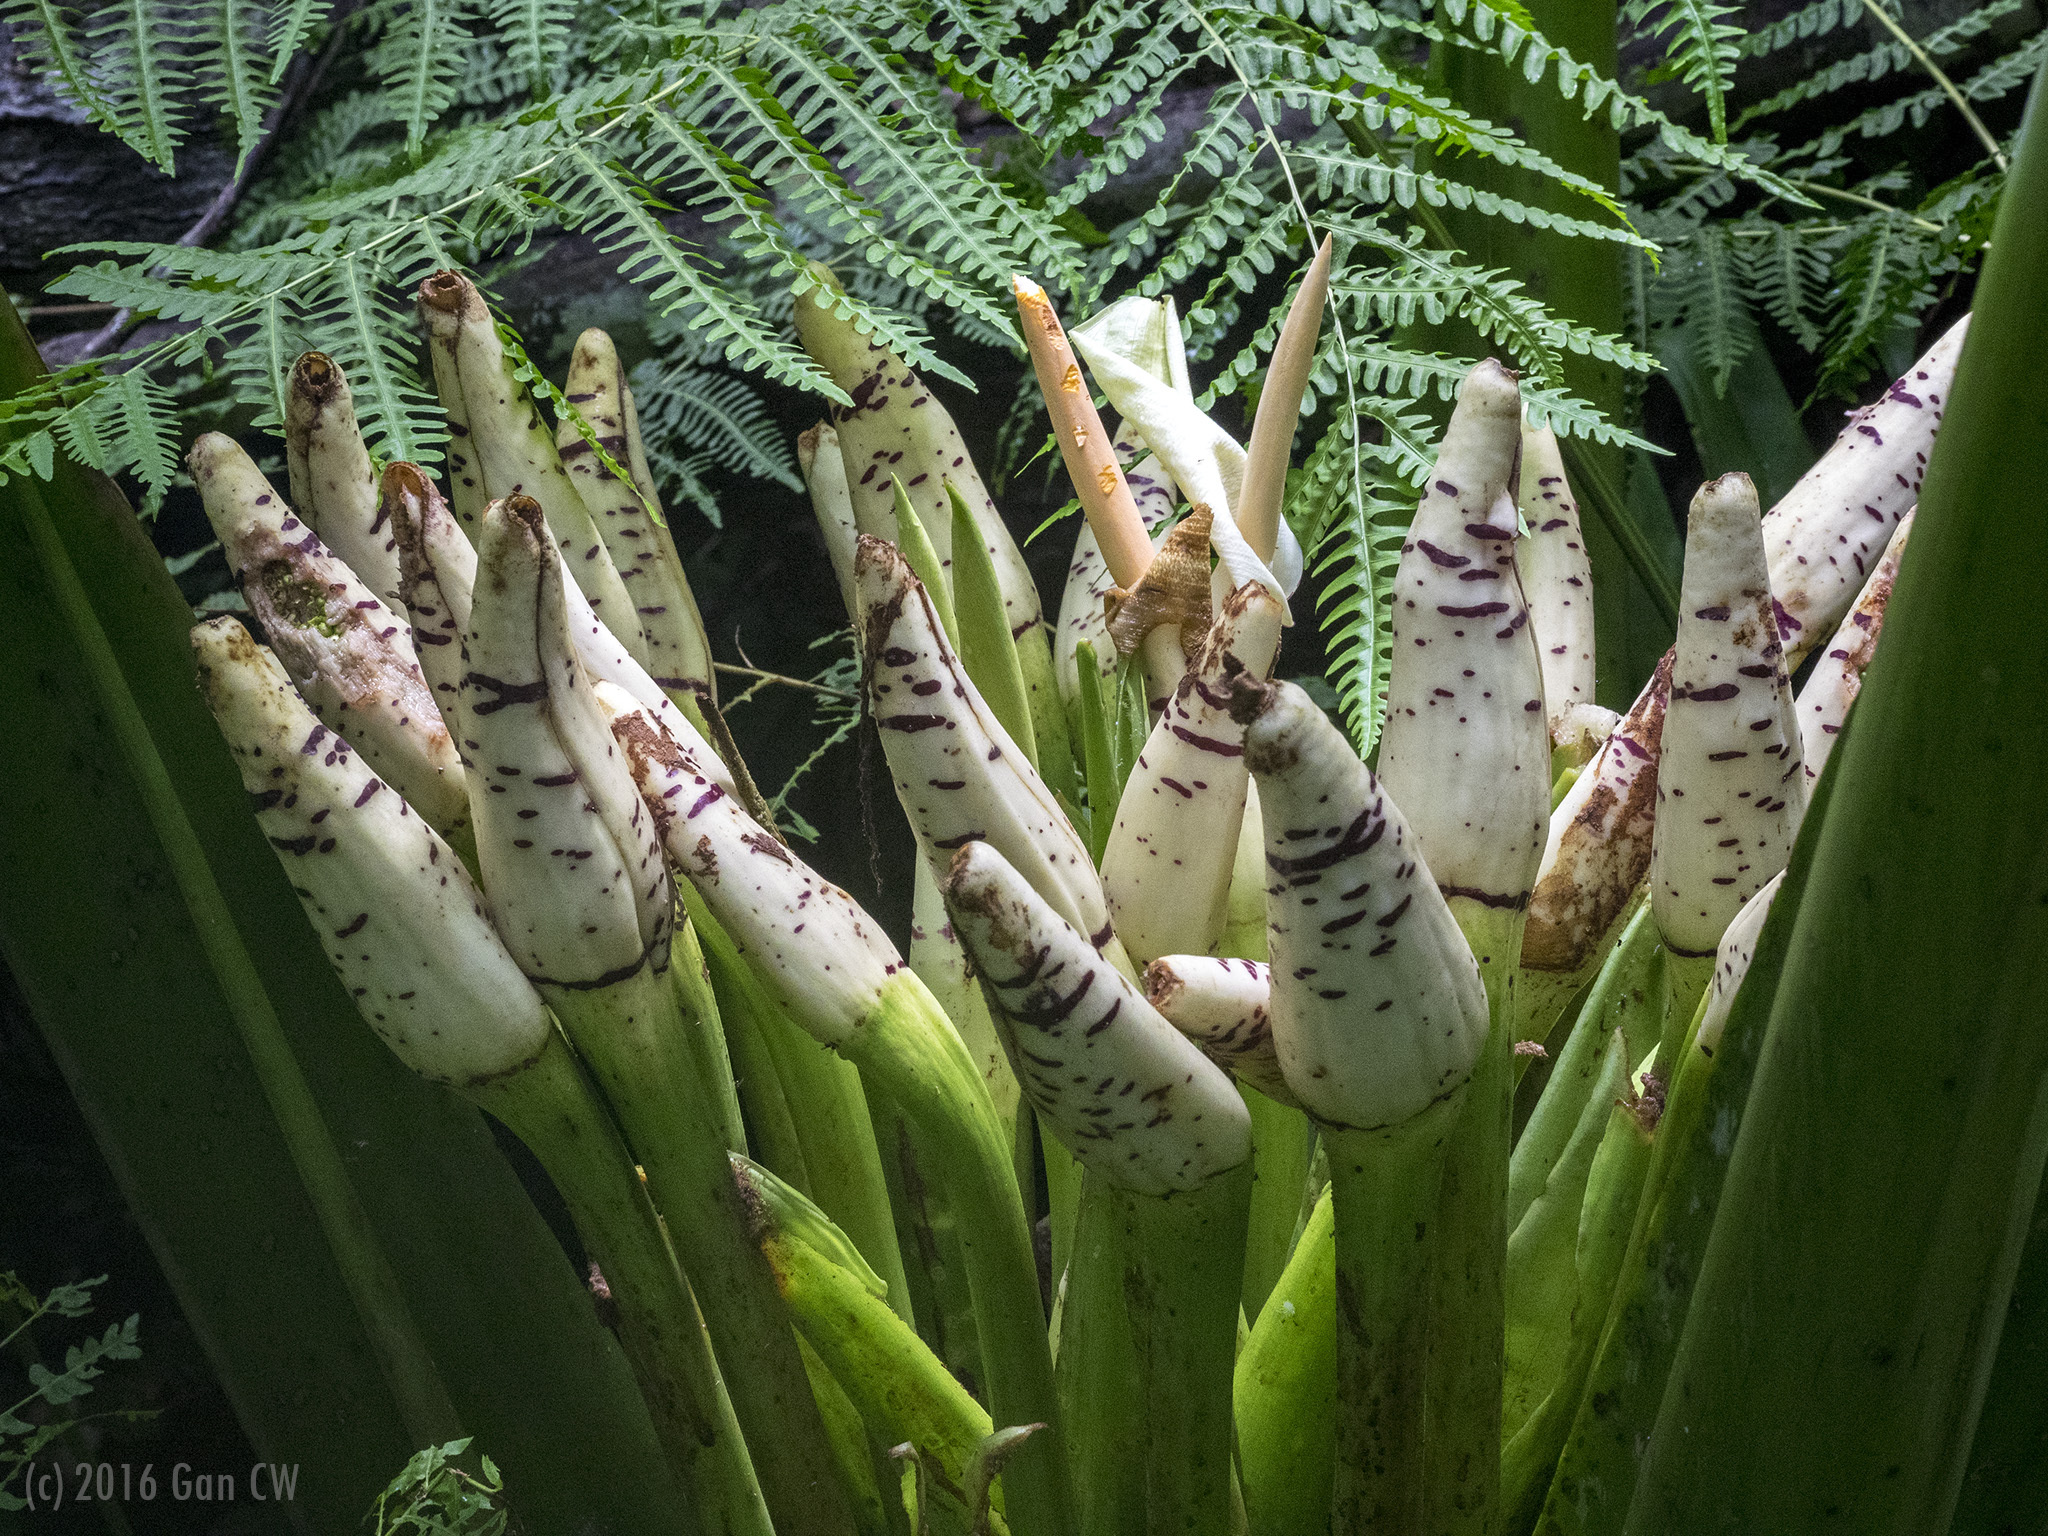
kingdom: Plantae
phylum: Tracheophyta
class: Liliopsida
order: Alismatales
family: Araceae
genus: Alocasia
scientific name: Alocasia robusta
